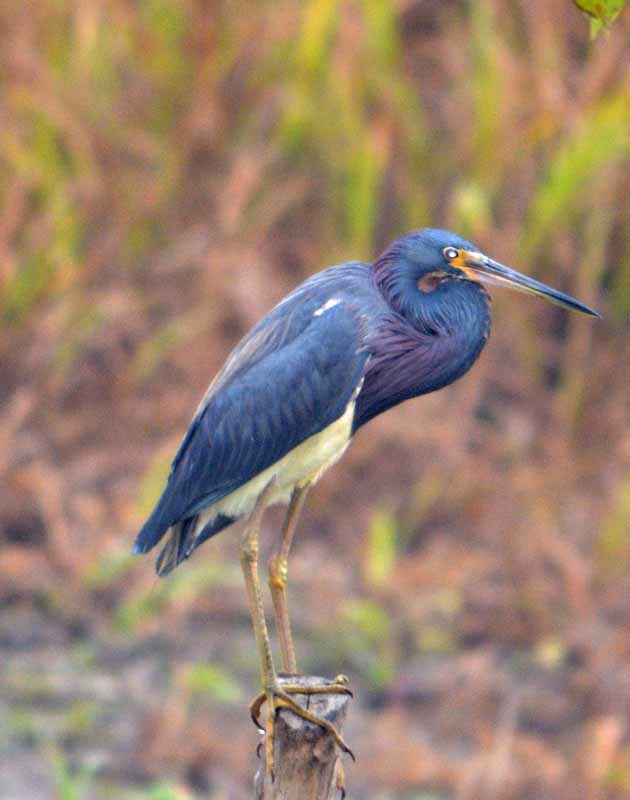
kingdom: Animalia
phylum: Chordata
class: Aves
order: Pelecaniformes
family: Ardeidae
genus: Egretta
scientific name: Egretta tricolor
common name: Tricolored heron
